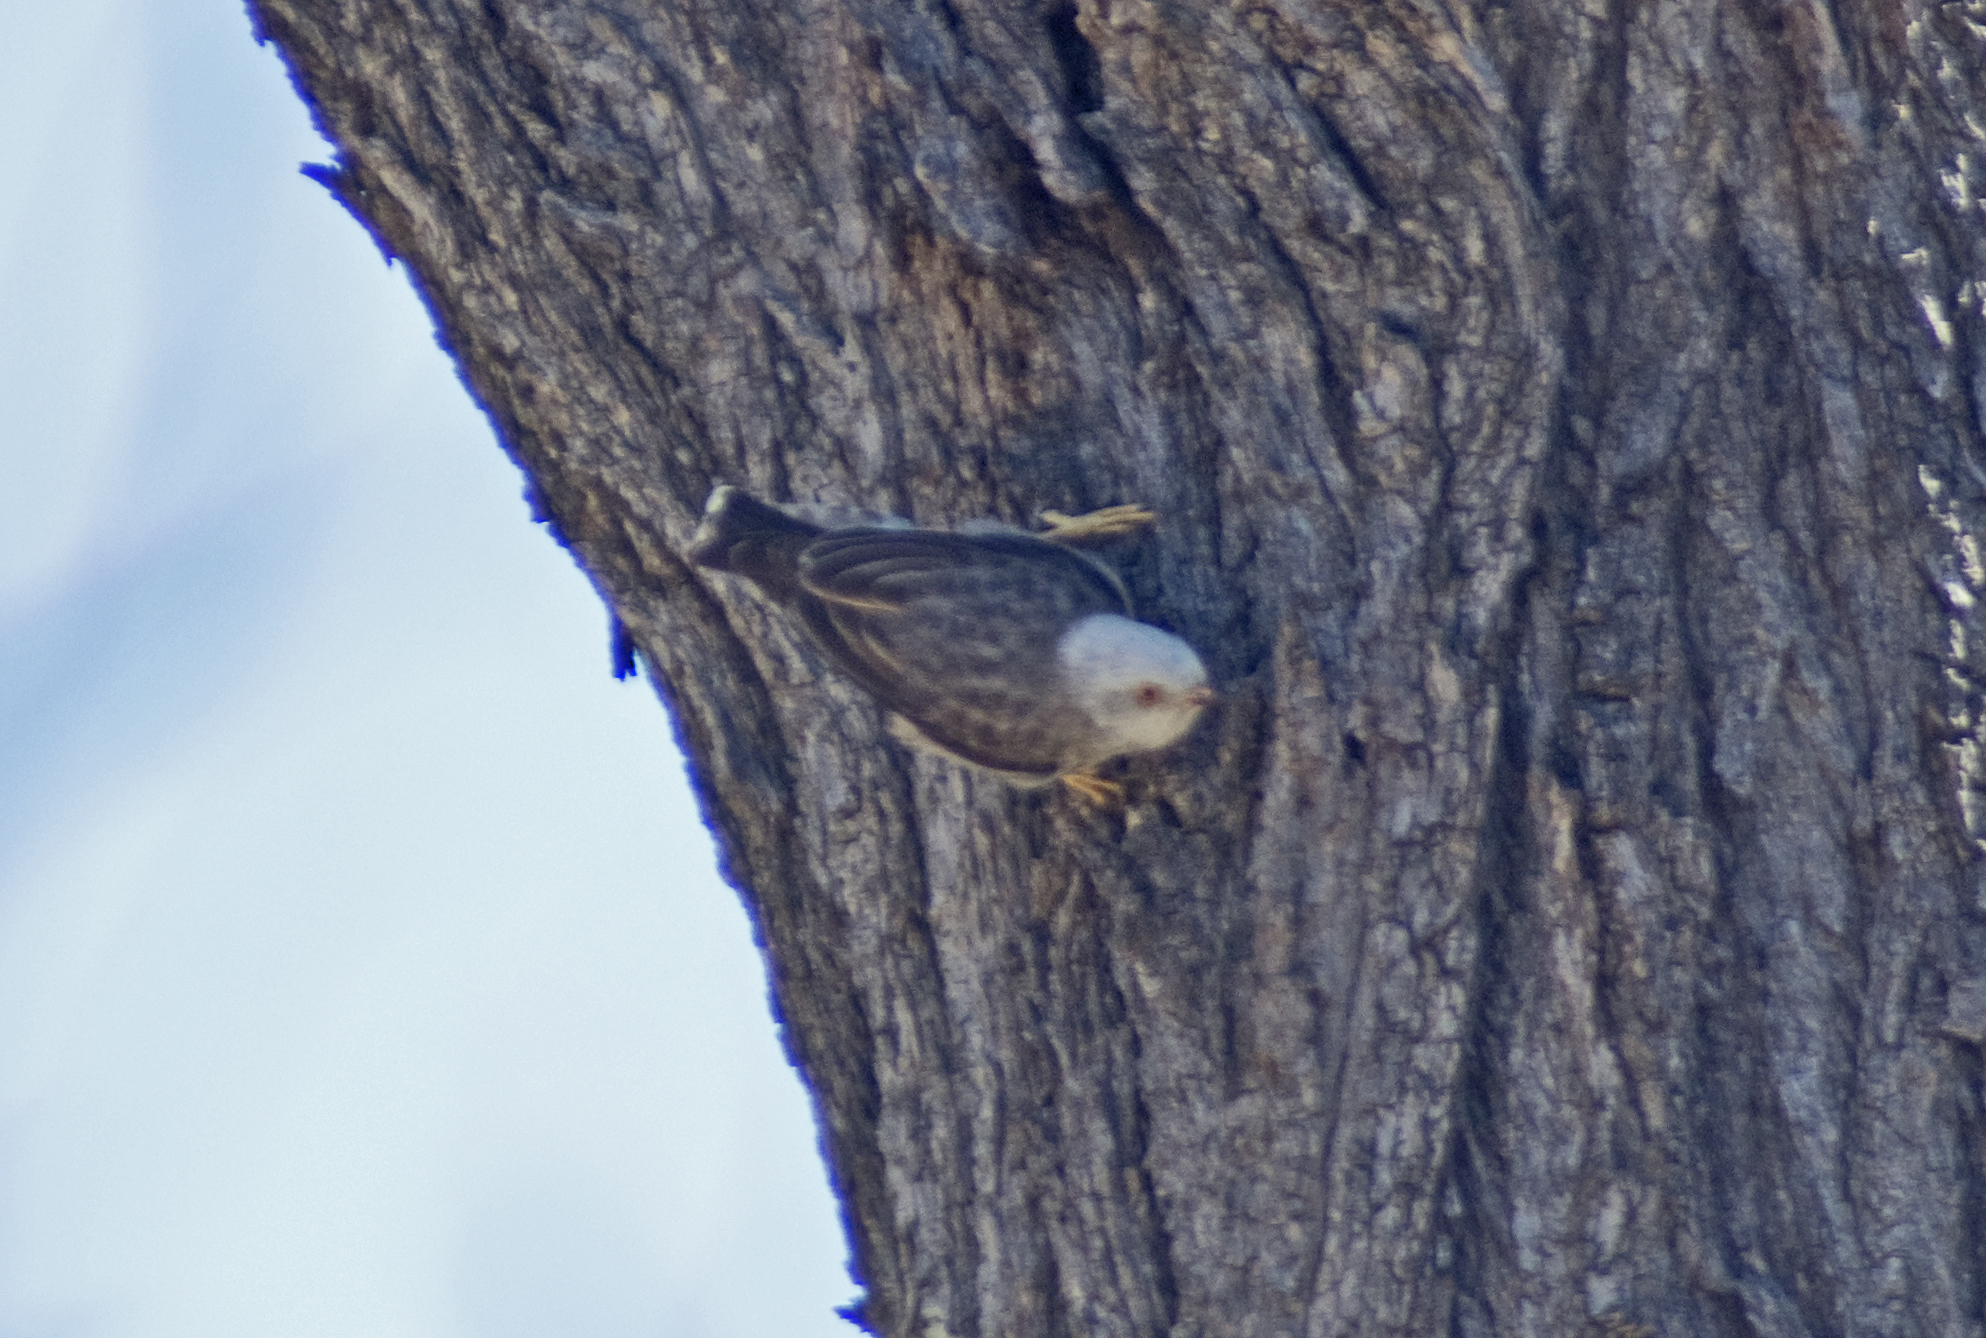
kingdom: Animalia
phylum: Chordata
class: Aves
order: Passeriformes
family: Neosittidae
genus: Daphoenositta
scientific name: Daphoenositta chrysoptera
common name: Varied sittella
